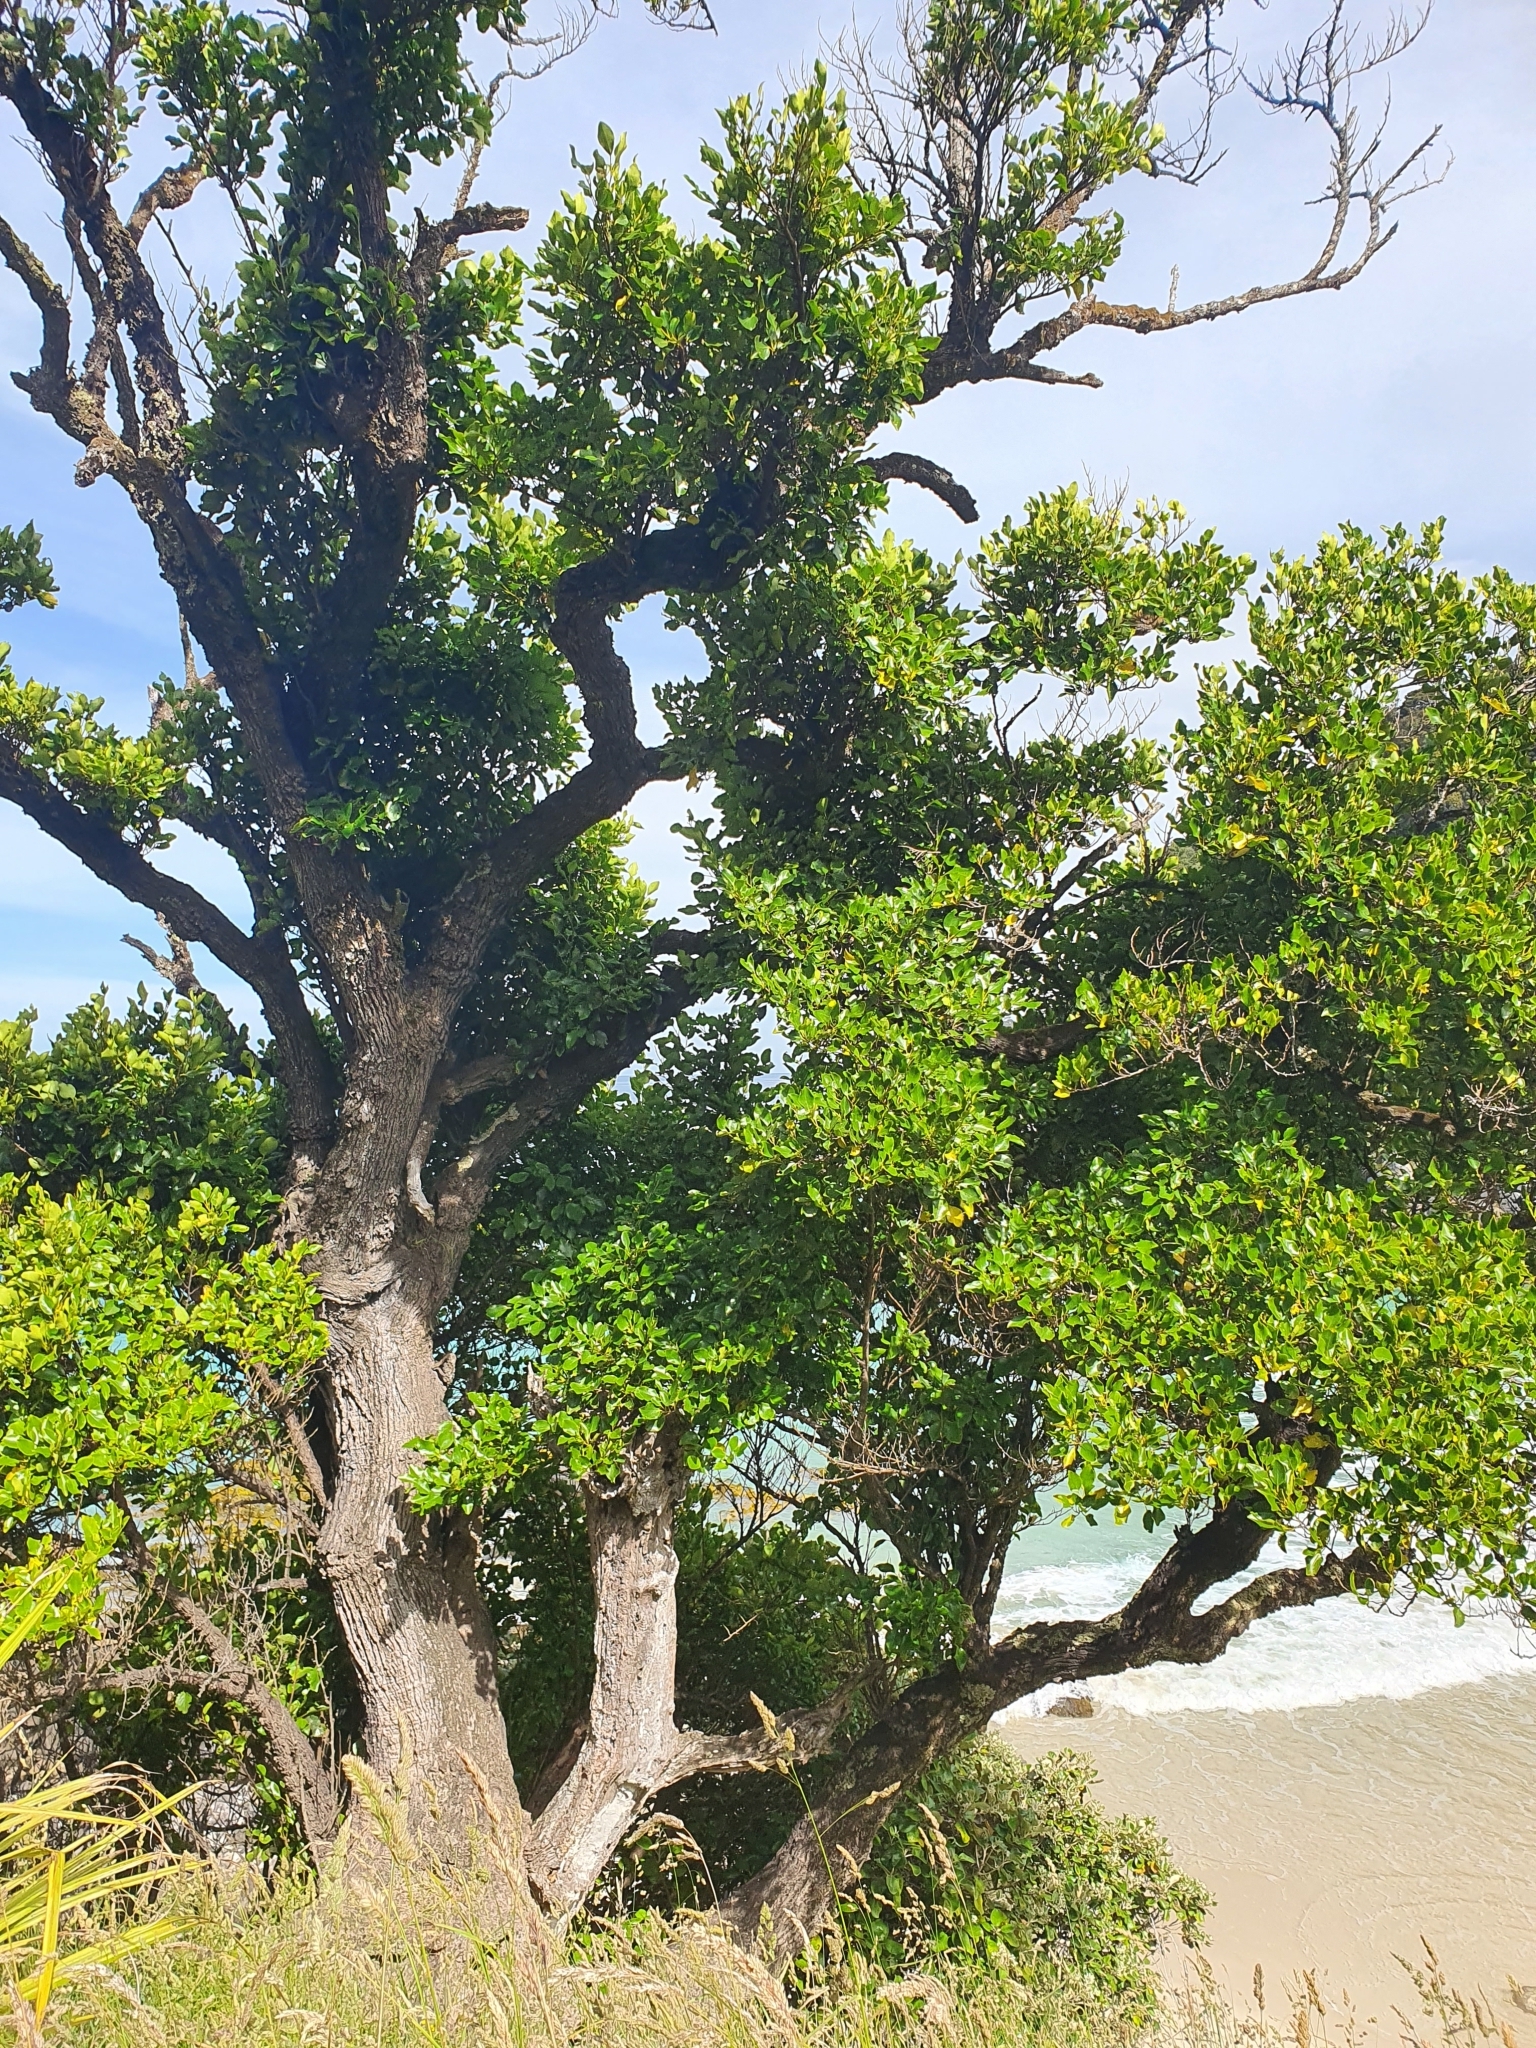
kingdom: Plantae
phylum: Tracheophyta
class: Magnoliopsida
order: Apiales
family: Griseliniaceae
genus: Griselinia
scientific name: Griselinia littoralis
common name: New zealand broadleaf
